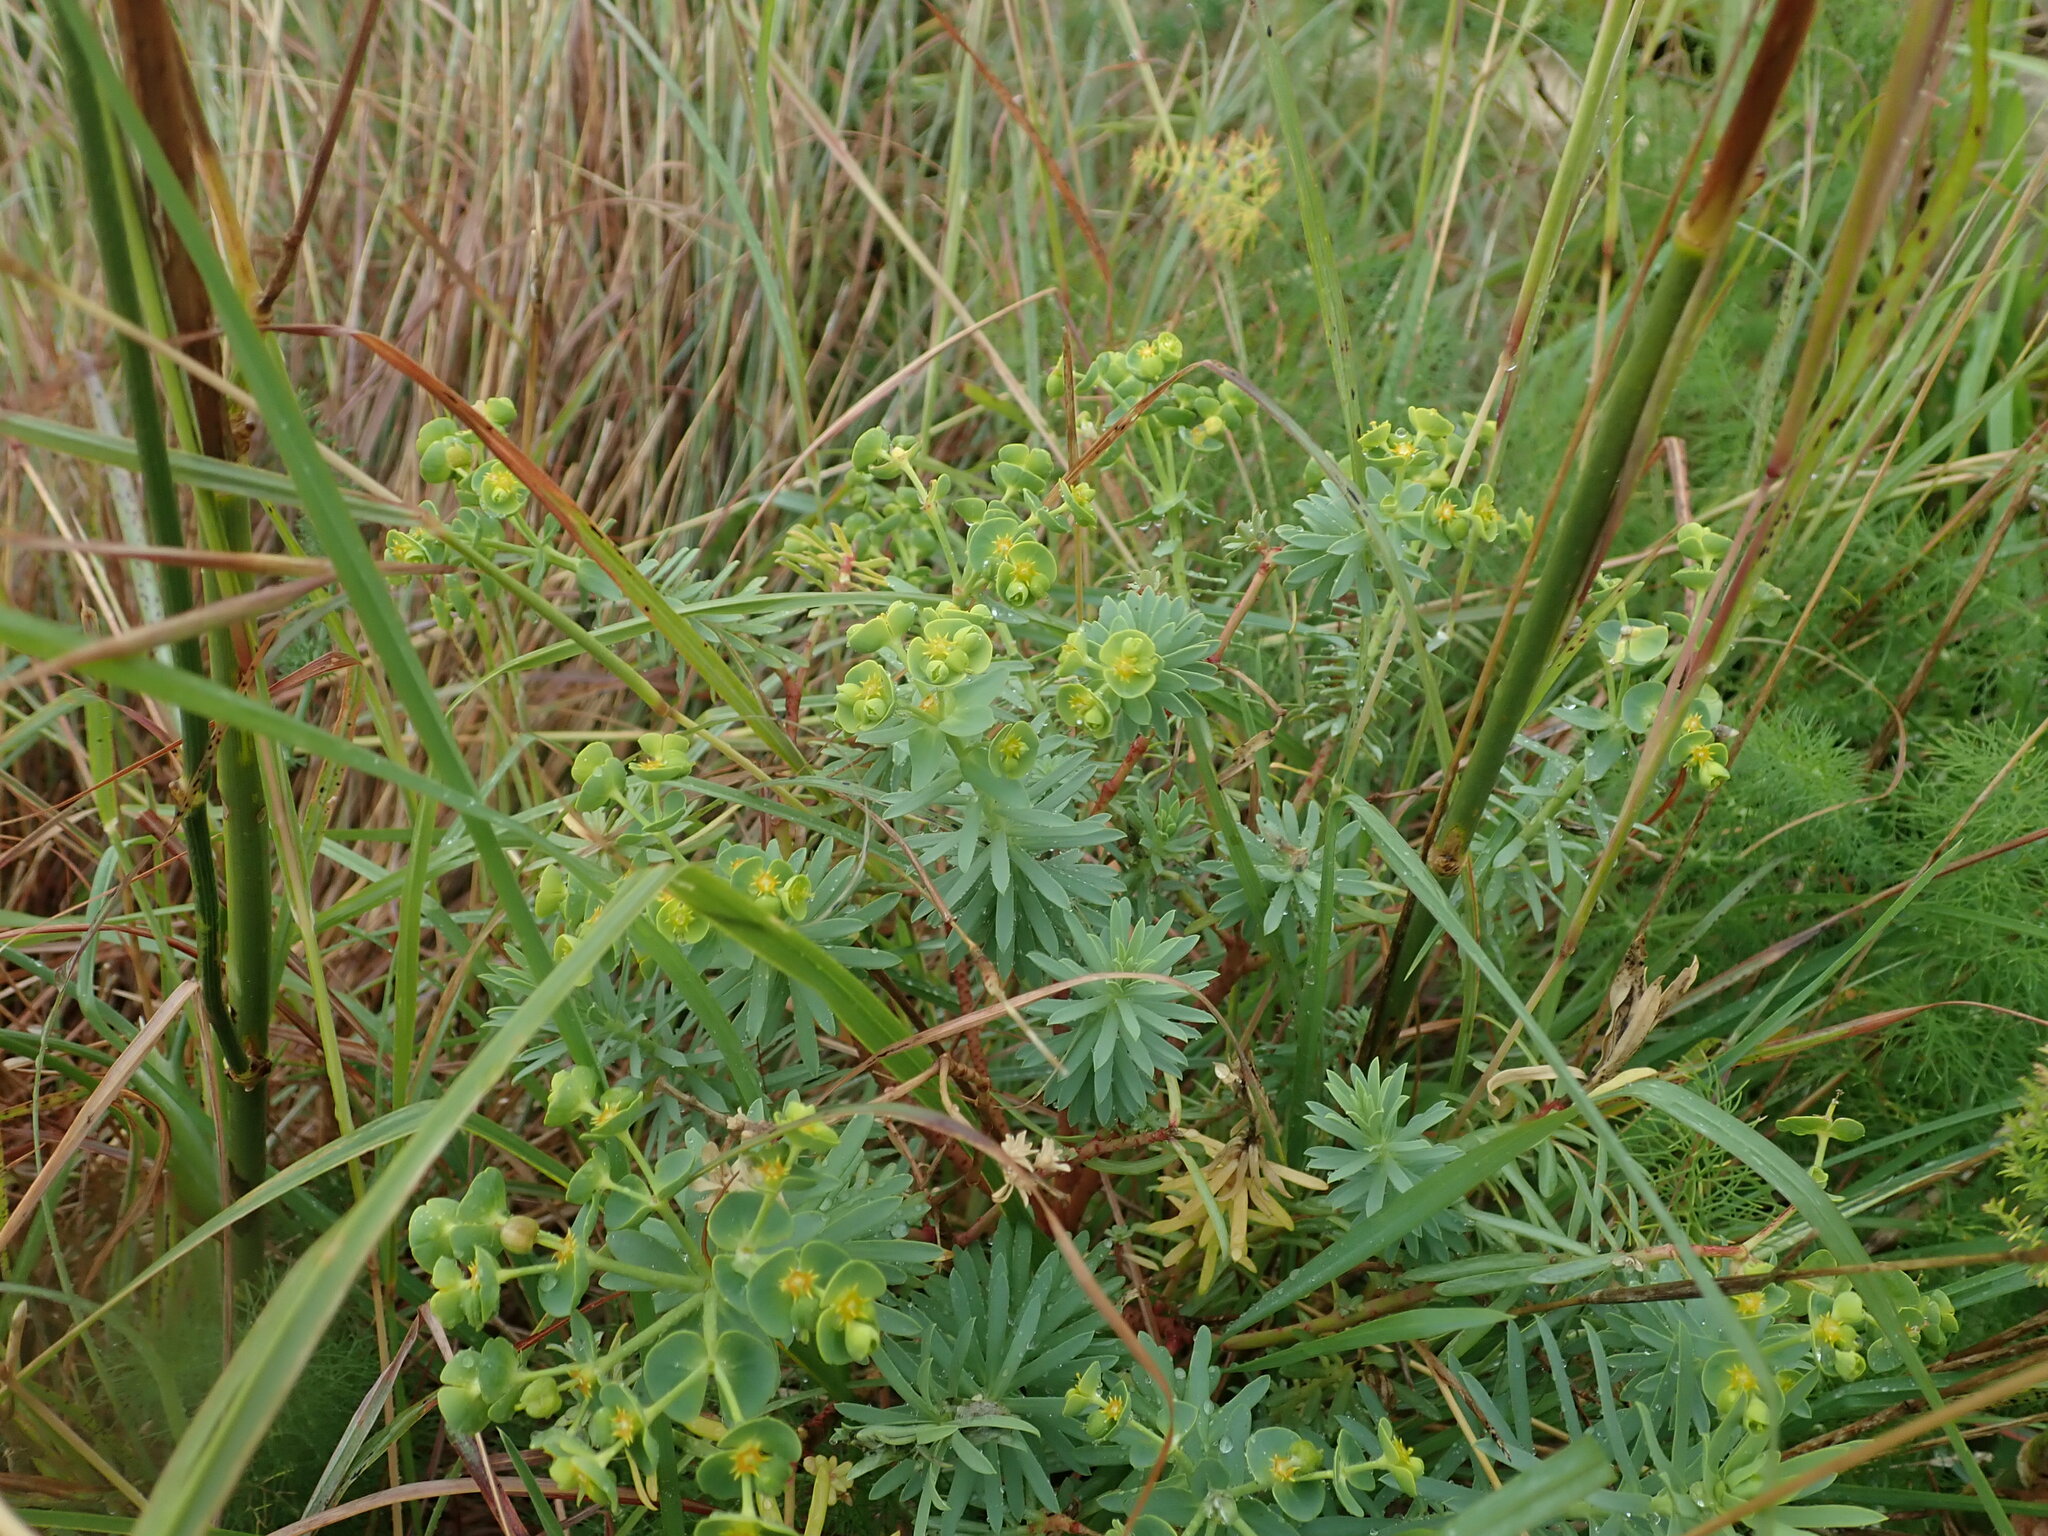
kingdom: Plantae
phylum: Tracheophyta
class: Magnoliopsida
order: Malpighiales
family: Euphorbiaceae
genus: Euphorbia
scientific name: Euphorbia segetalis
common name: Corn spurge
